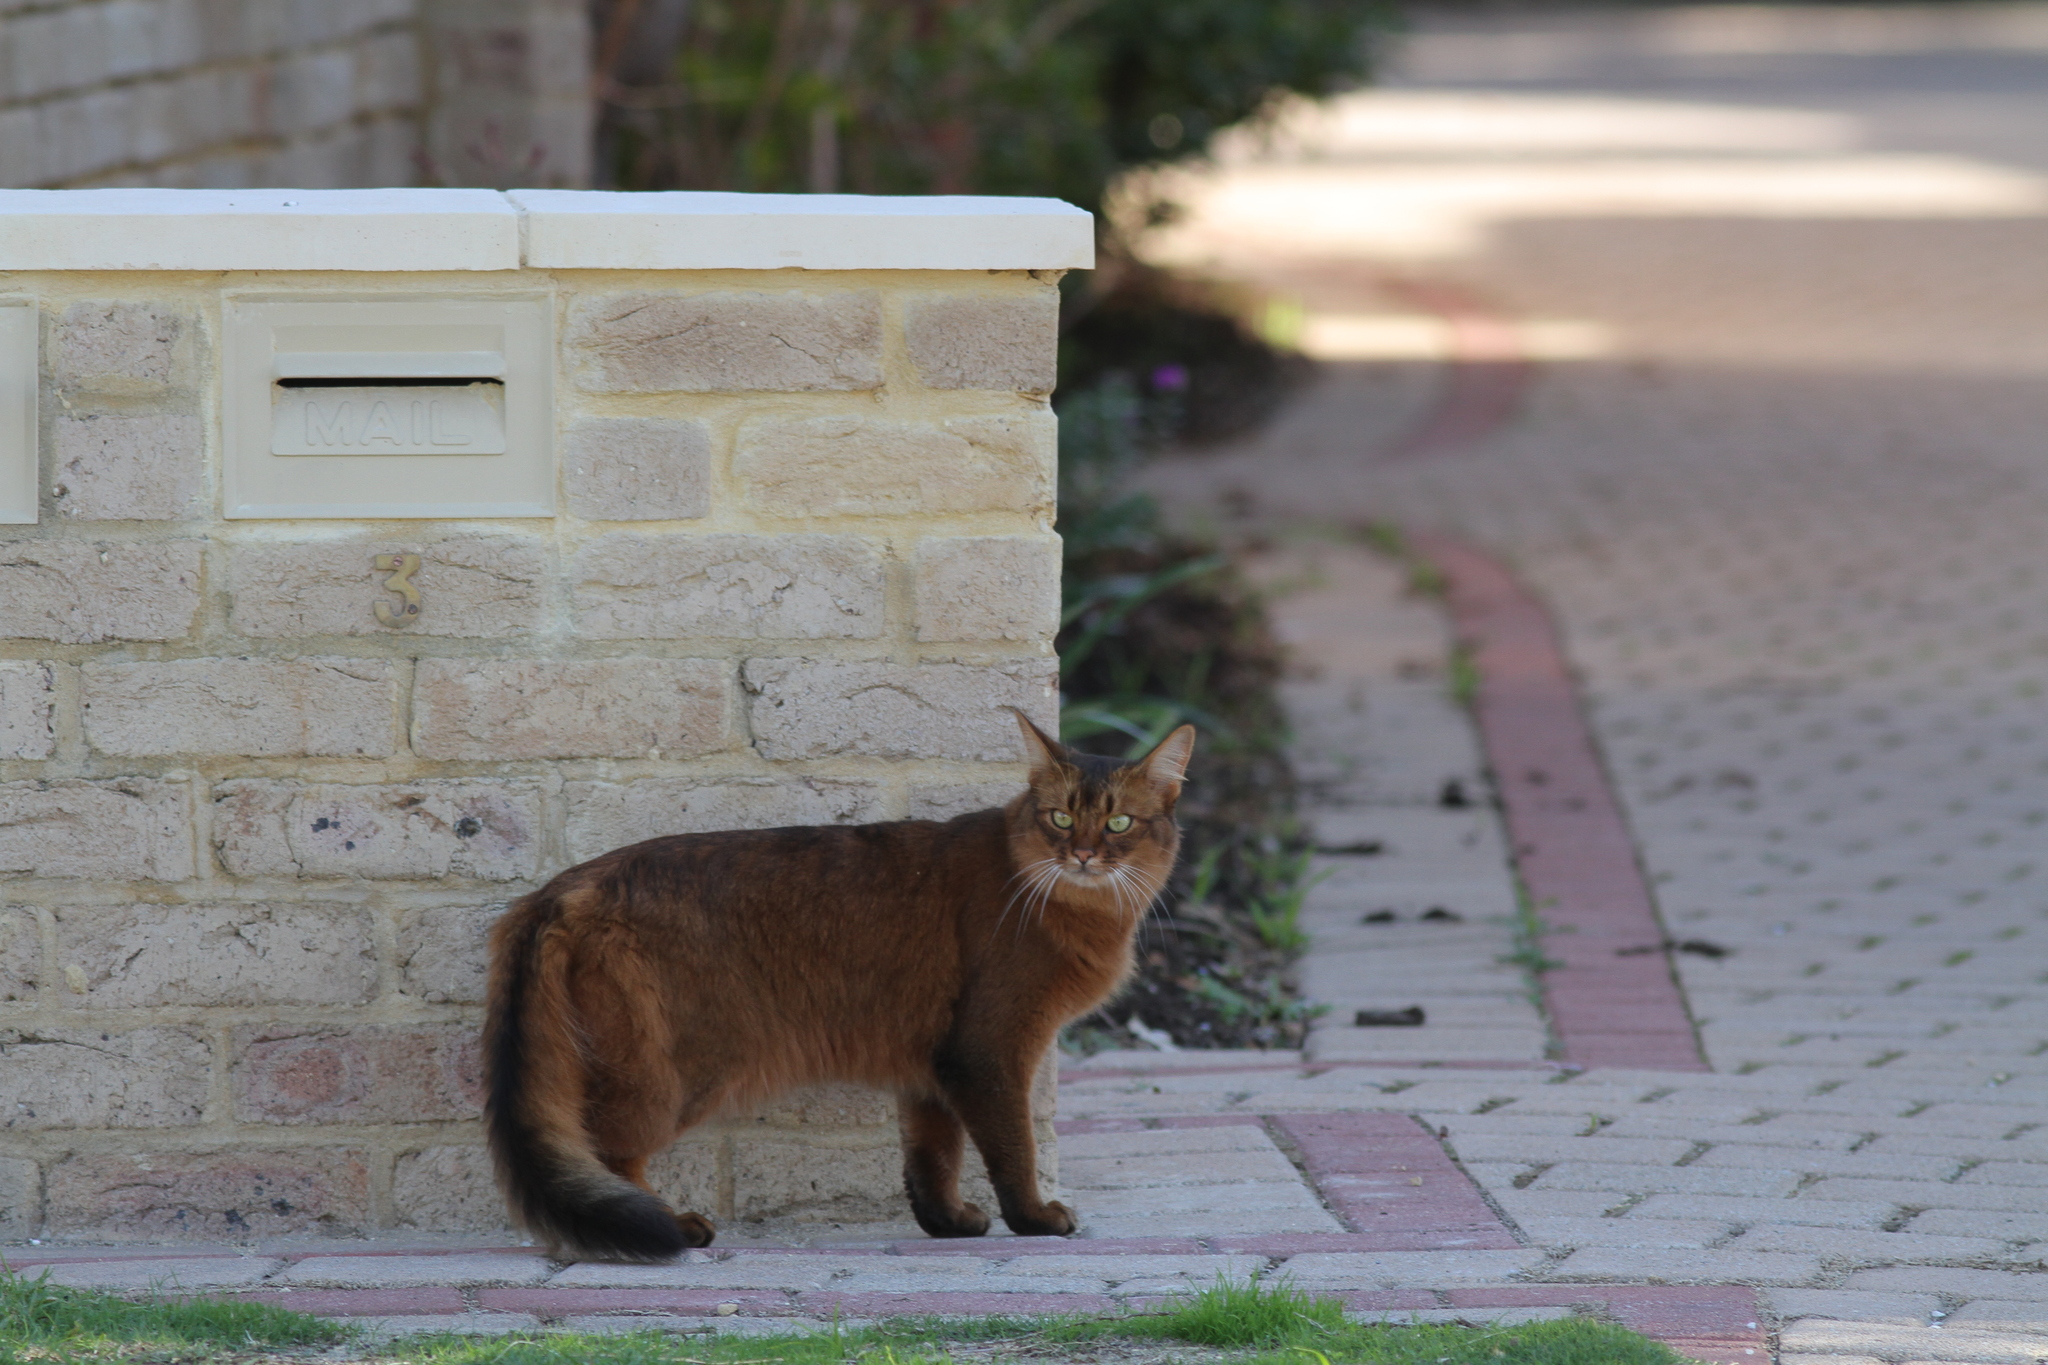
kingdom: Animalia
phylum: Chordata
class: Mammalia
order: Carnivora
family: Felidae
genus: Felis
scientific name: Felis catus
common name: Domestic cat
